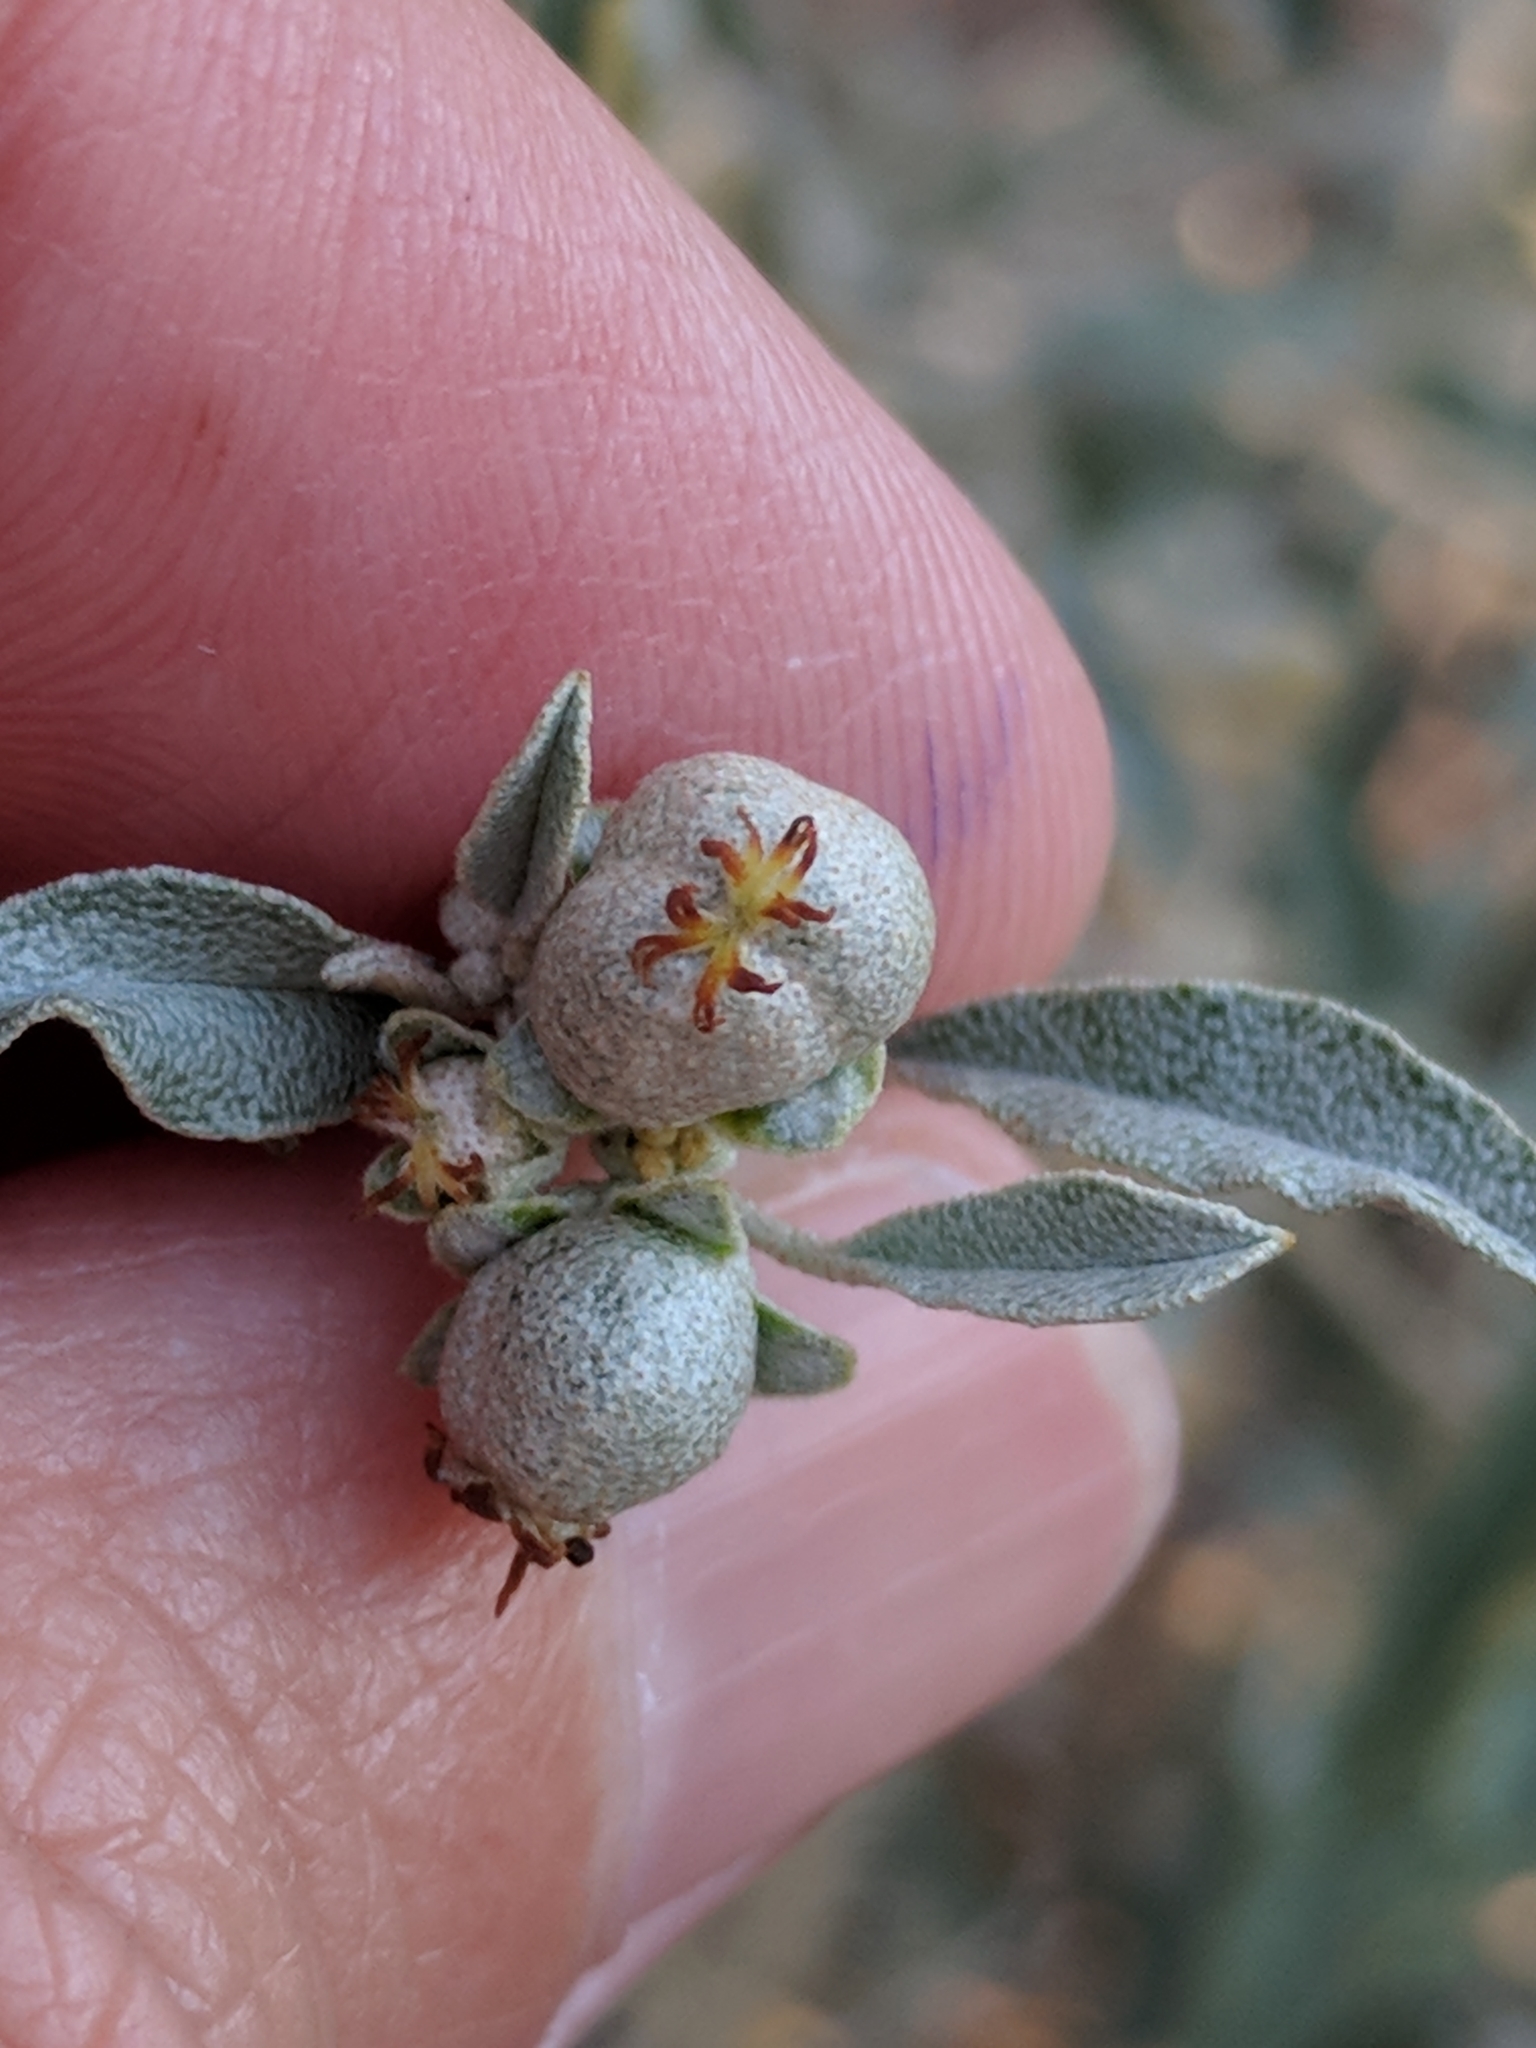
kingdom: Plantae
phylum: Tracheophyta
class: Magnoliopsida
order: Malpighiales
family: Euphorbiaceae
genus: Croton
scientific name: Croton dioicus
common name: Grassland croton
